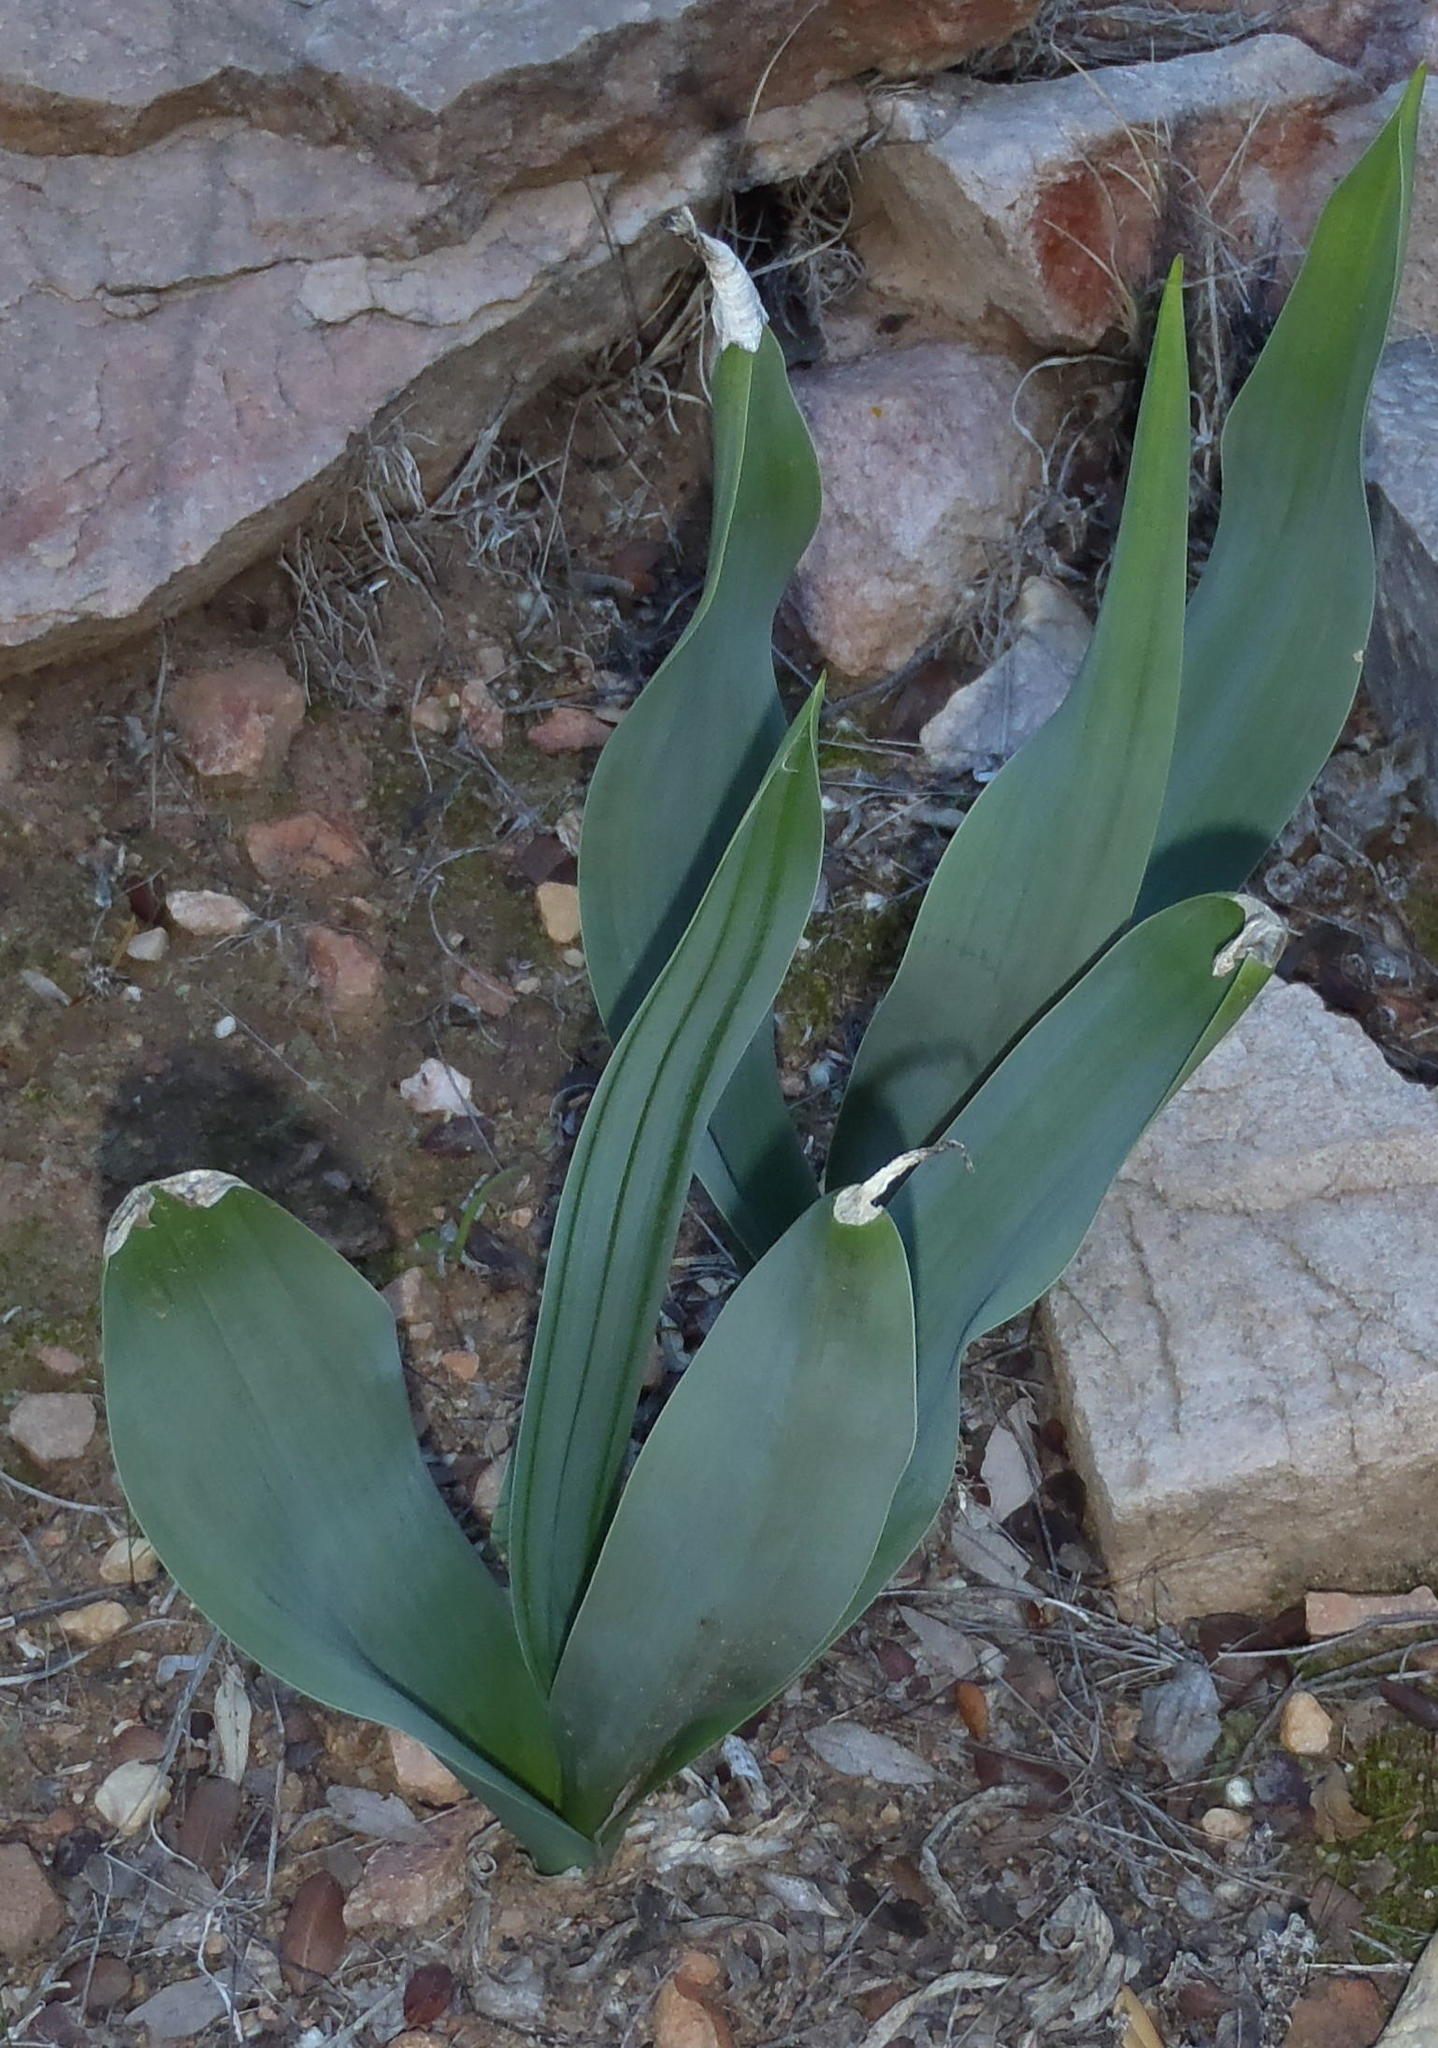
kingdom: Plantae
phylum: Tracheophyta
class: Liliopsida
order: Asparagales
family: Asparagaceae
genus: Drimia
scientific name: Drimia capensis
